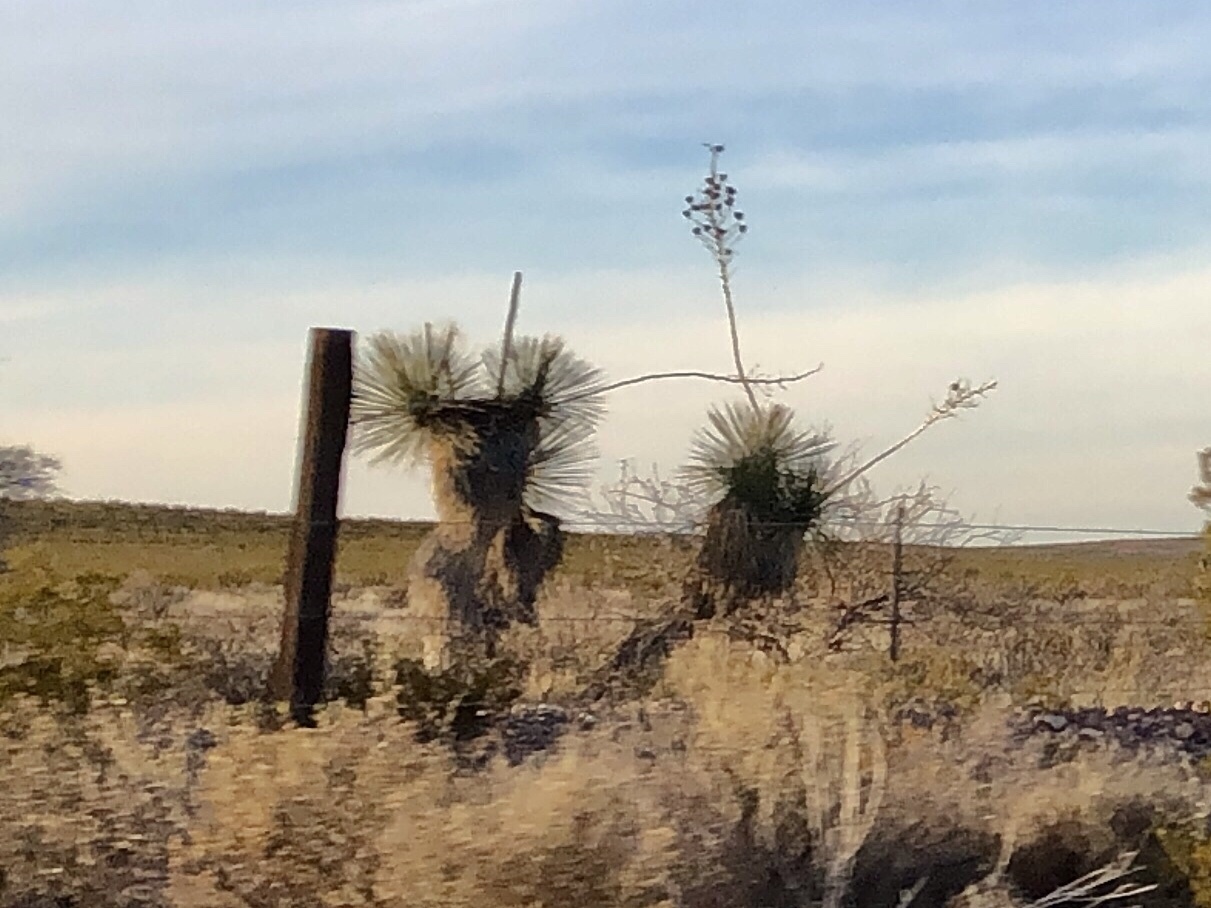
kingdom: Plantae
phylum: Tracheophyta
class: Liliopsida
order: Asparagales
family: Asparagaceae
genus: Yucca
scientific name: Yucca elata
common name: Palmella
